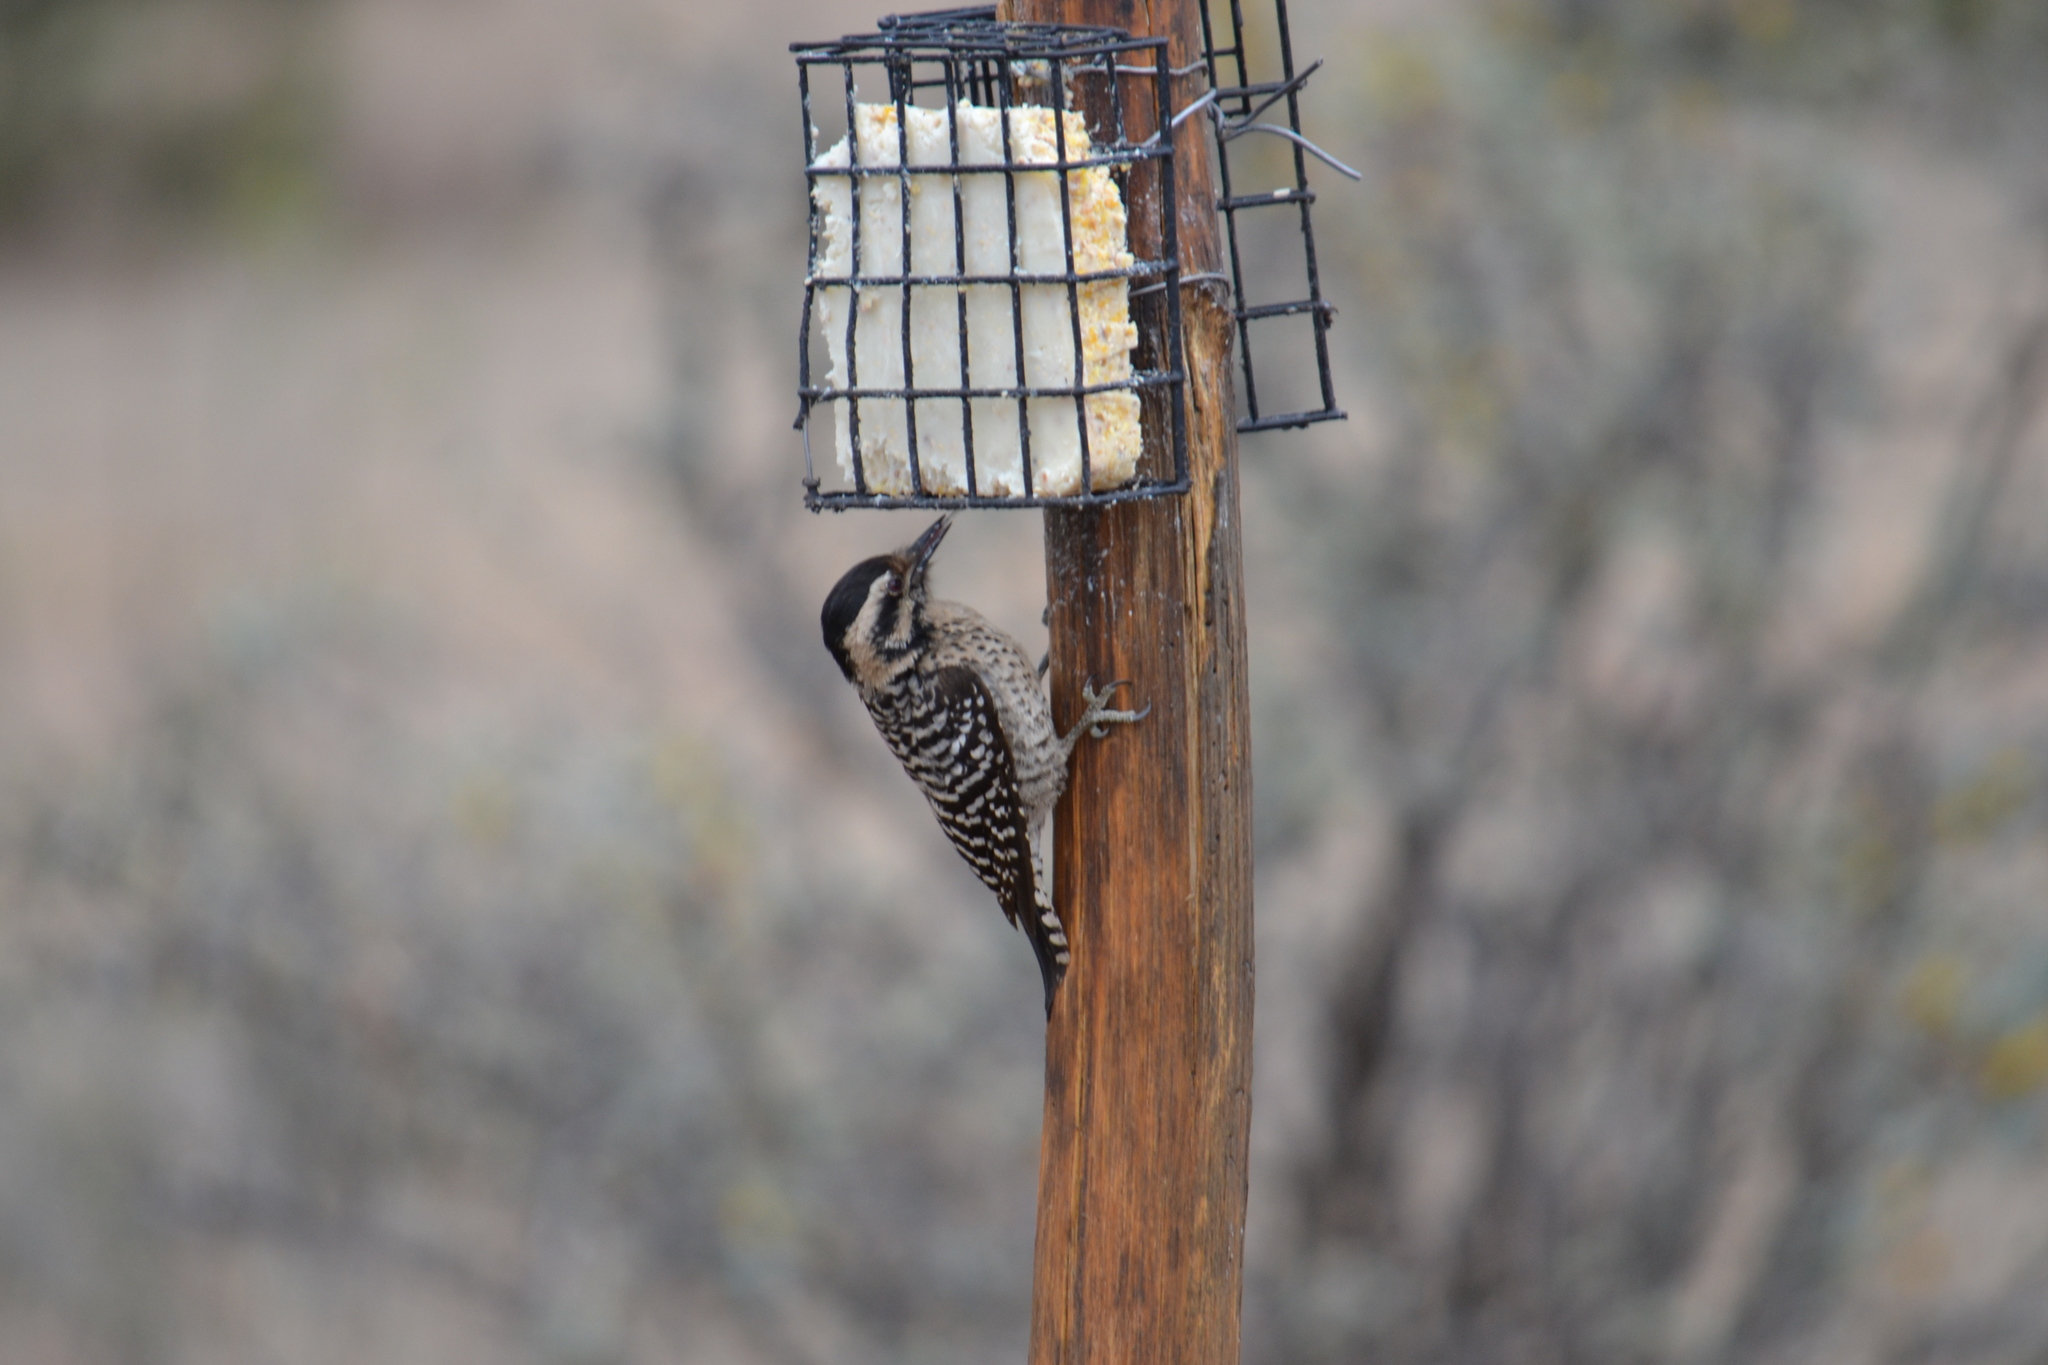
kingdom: Animalia
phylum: Chordata
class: Aves
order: Piciformes
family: Picidae
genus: Dryobates
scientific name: Dryobates scalaris
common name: Ladder-backed woodpecker
